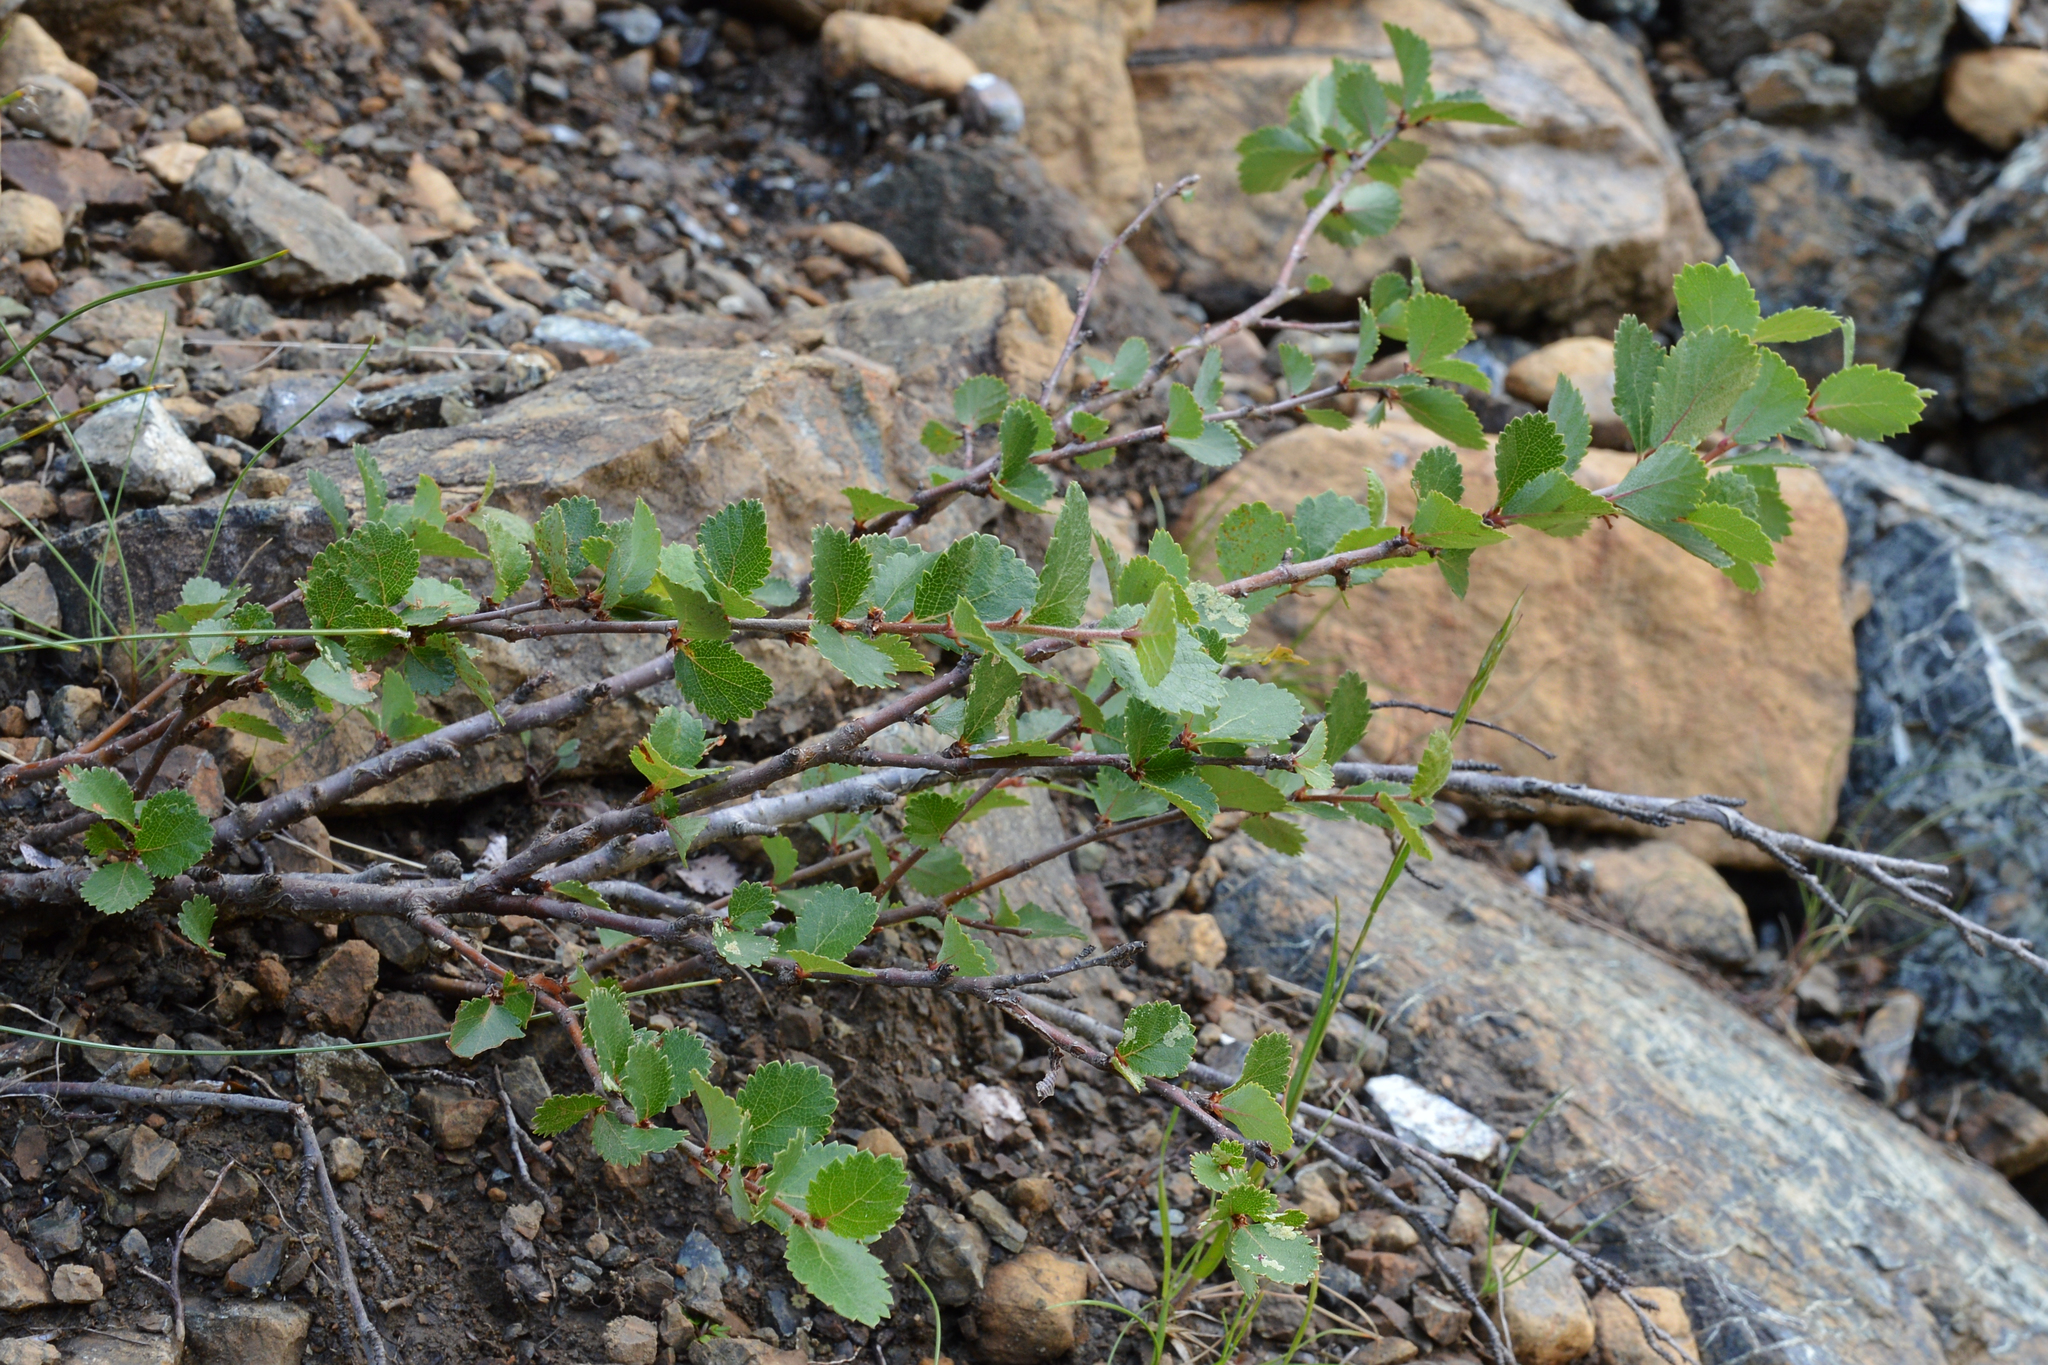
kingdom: Plantae
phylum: Tracheophyta
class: Magnoliopsida
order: Fagales
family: Betulaceae
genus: Betula
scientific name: Betula pumila
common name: Bog birch
